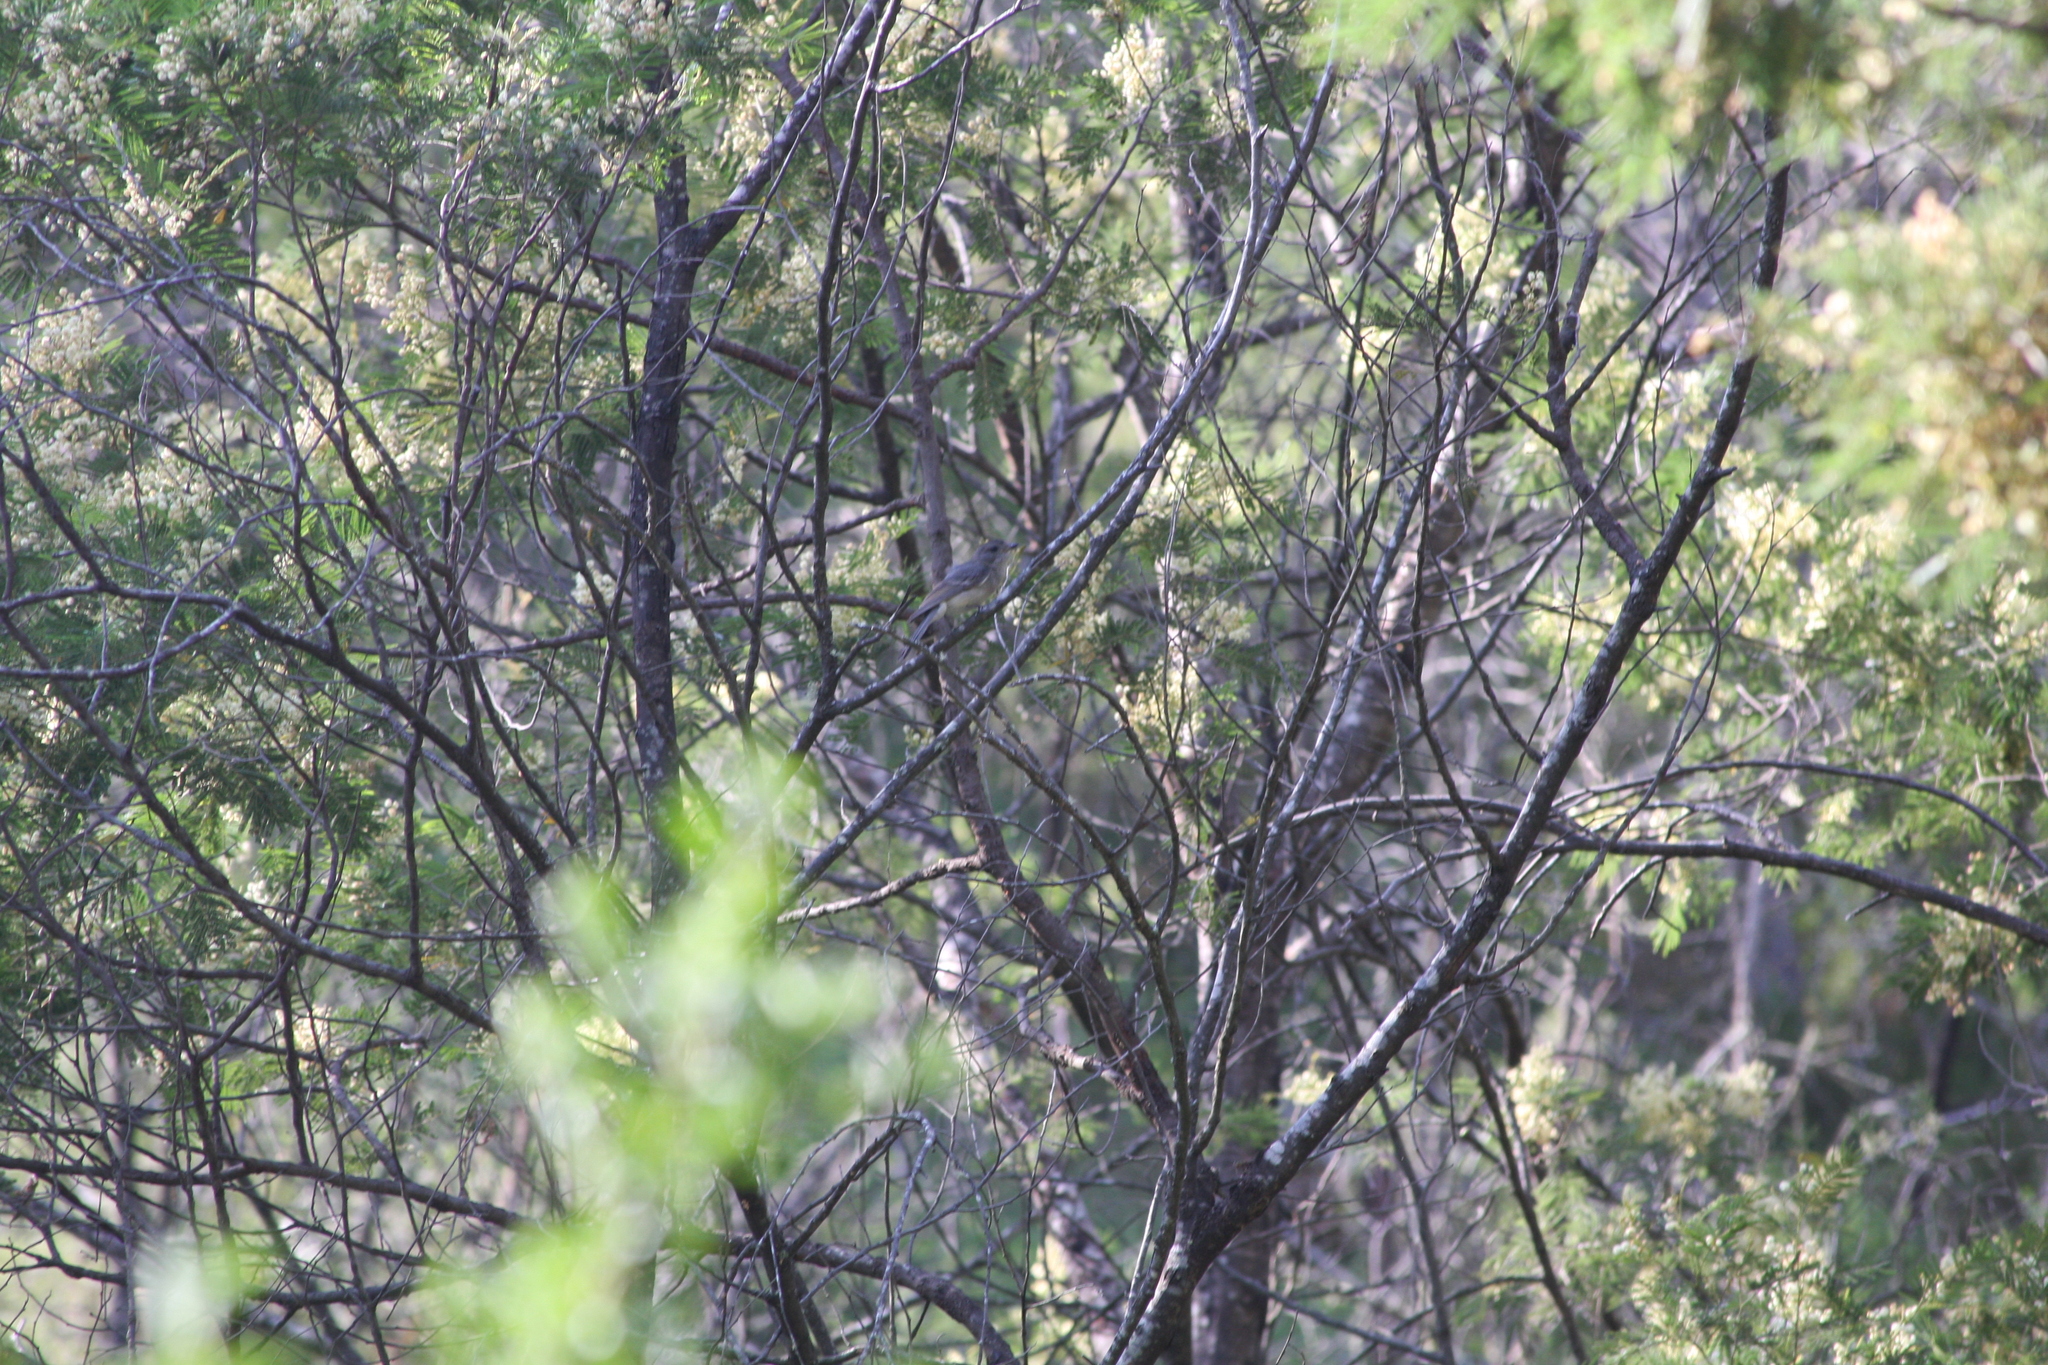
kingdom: Animalia
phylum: Chordata
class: Aves
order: Passeriformes
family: Pachycephalidae
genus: Pachycephala
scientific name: Pachycephala pectoralis
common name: Australian golden whistler
